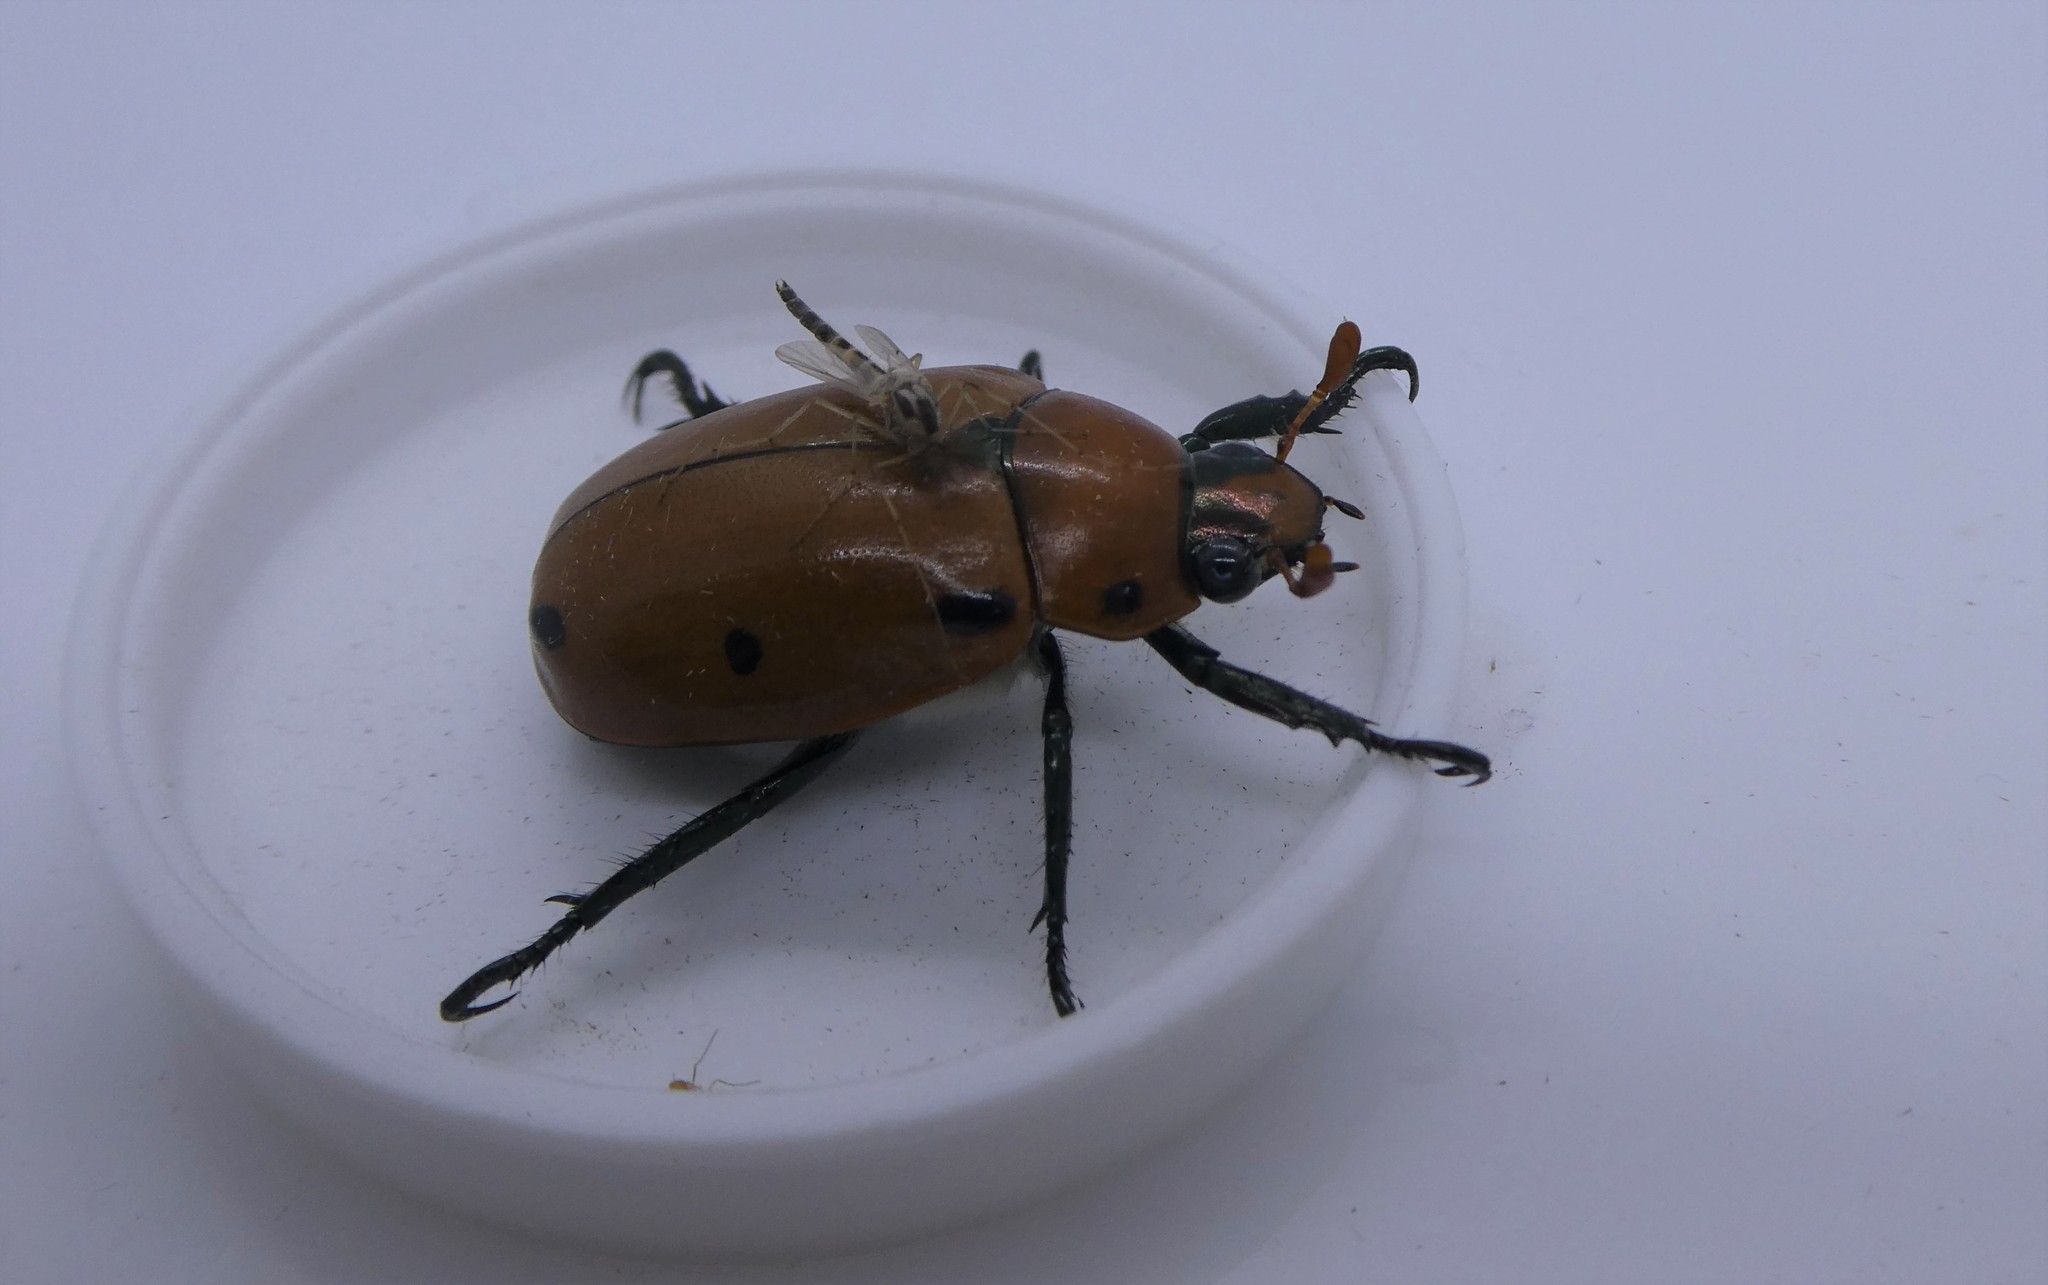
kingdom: Animalia
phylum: Arthropoda
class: Insecta
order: Coleoptera
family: Scarabaeidae
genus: Pelidnota
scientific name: Pelidnota punctata
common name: Grapevine beetle
